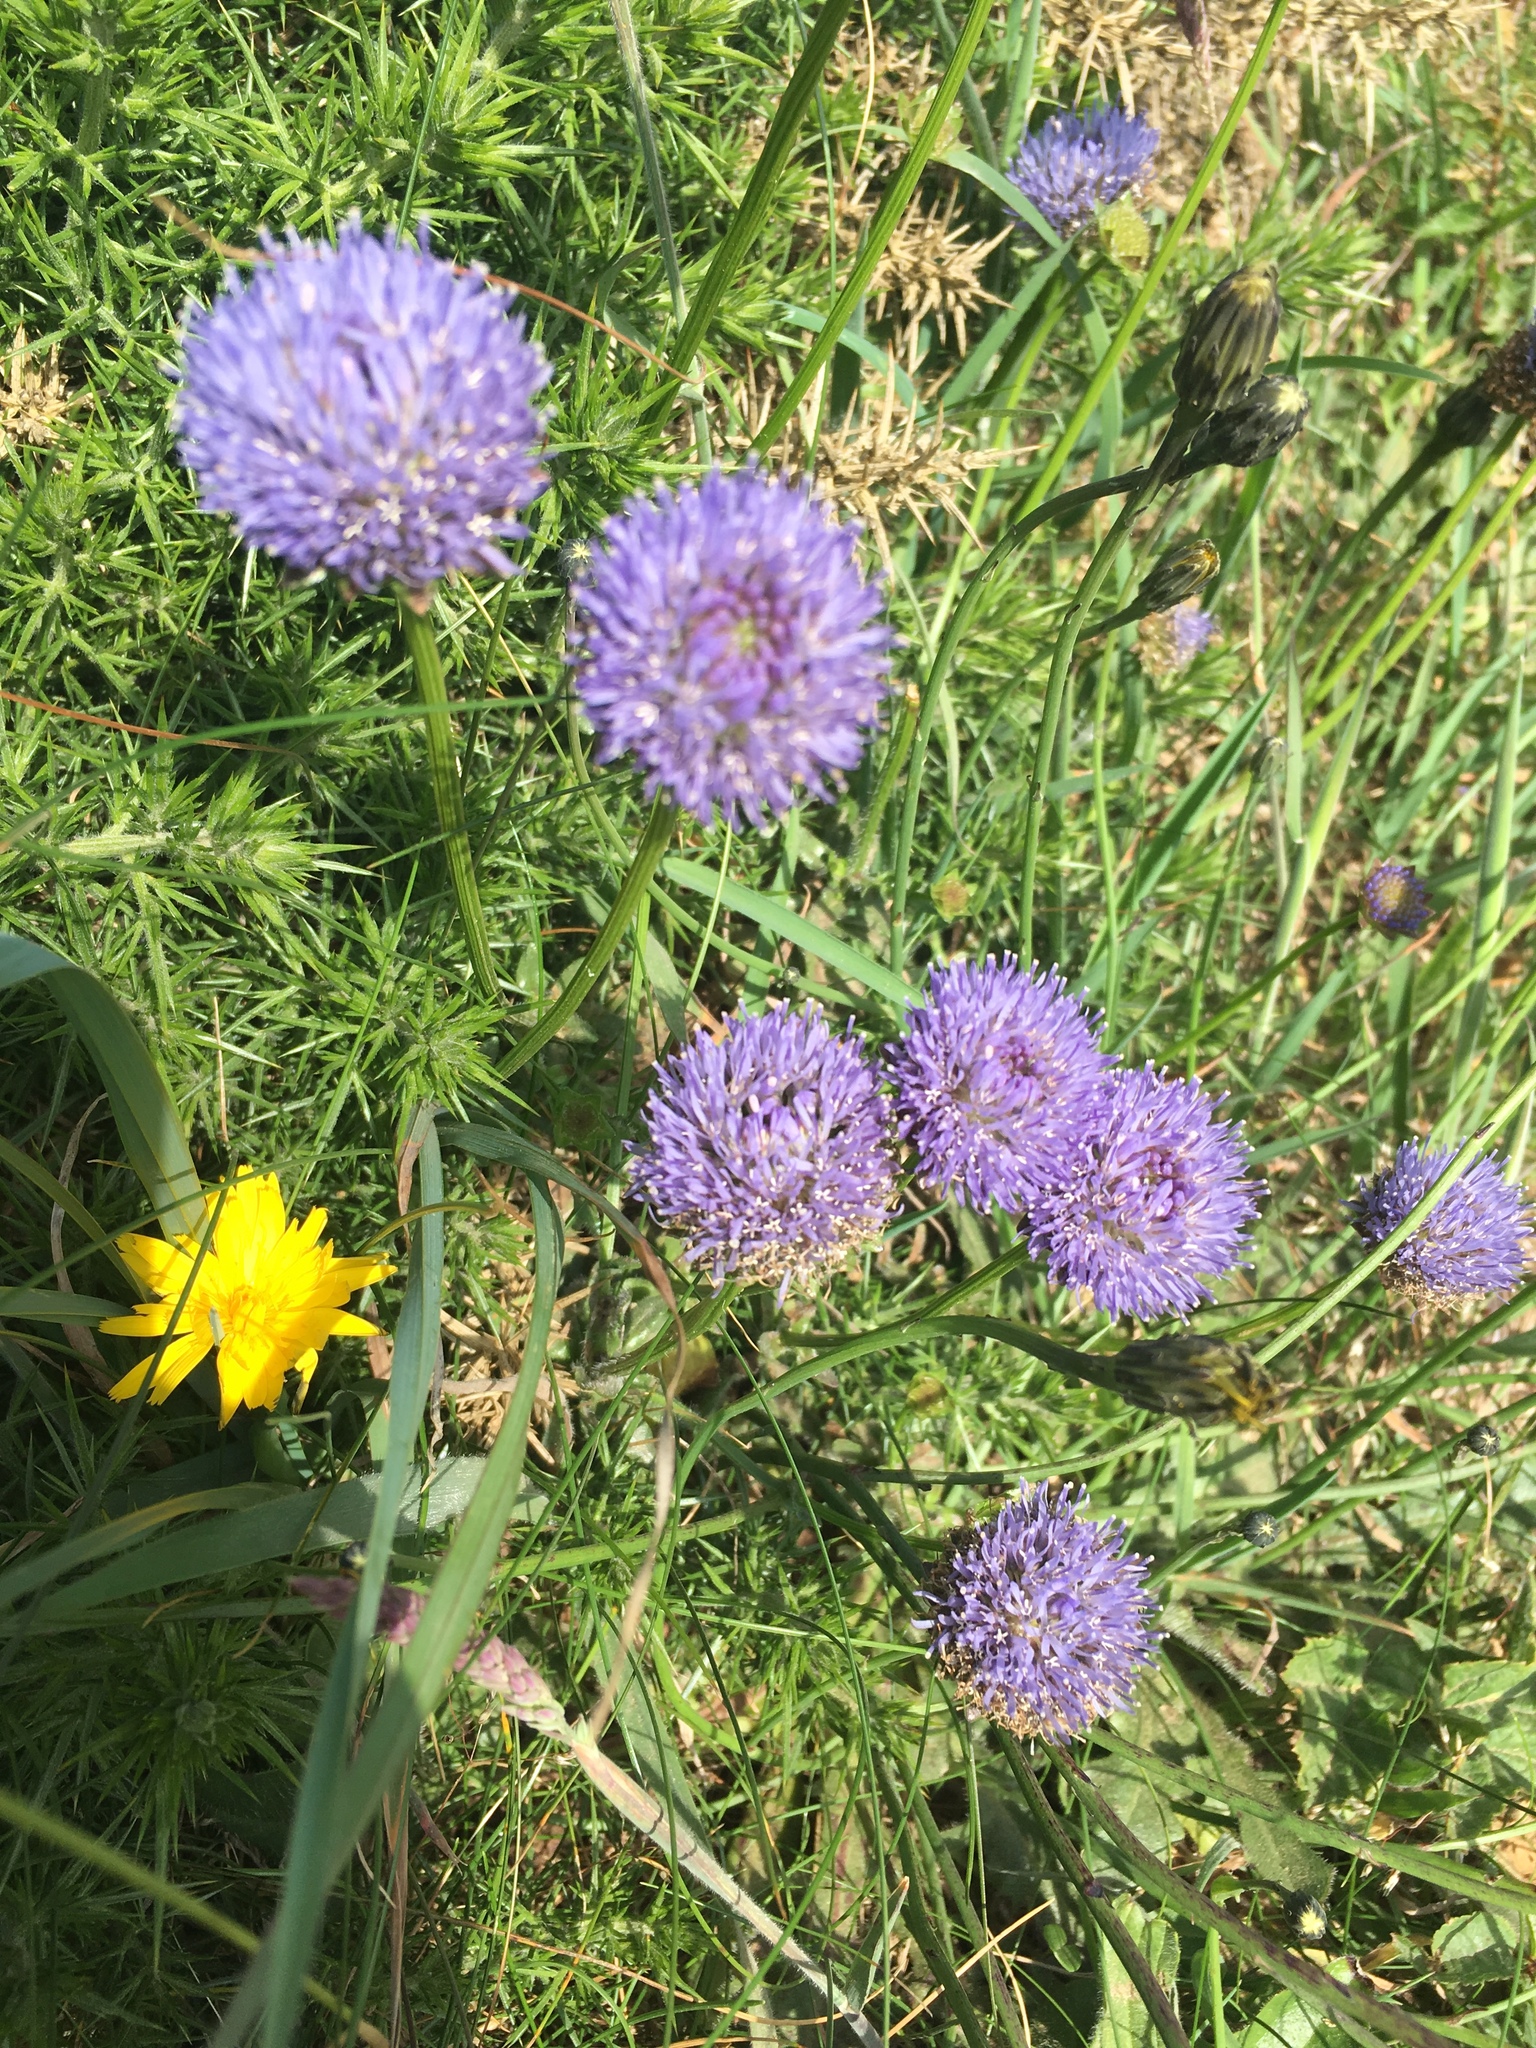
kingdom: Plantae
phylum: Tracheophyta
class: Magnoliopsida
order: Asterales
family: Campanulaceae
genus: Jasione
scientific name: Jasione montana
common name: Sheep's-bit
